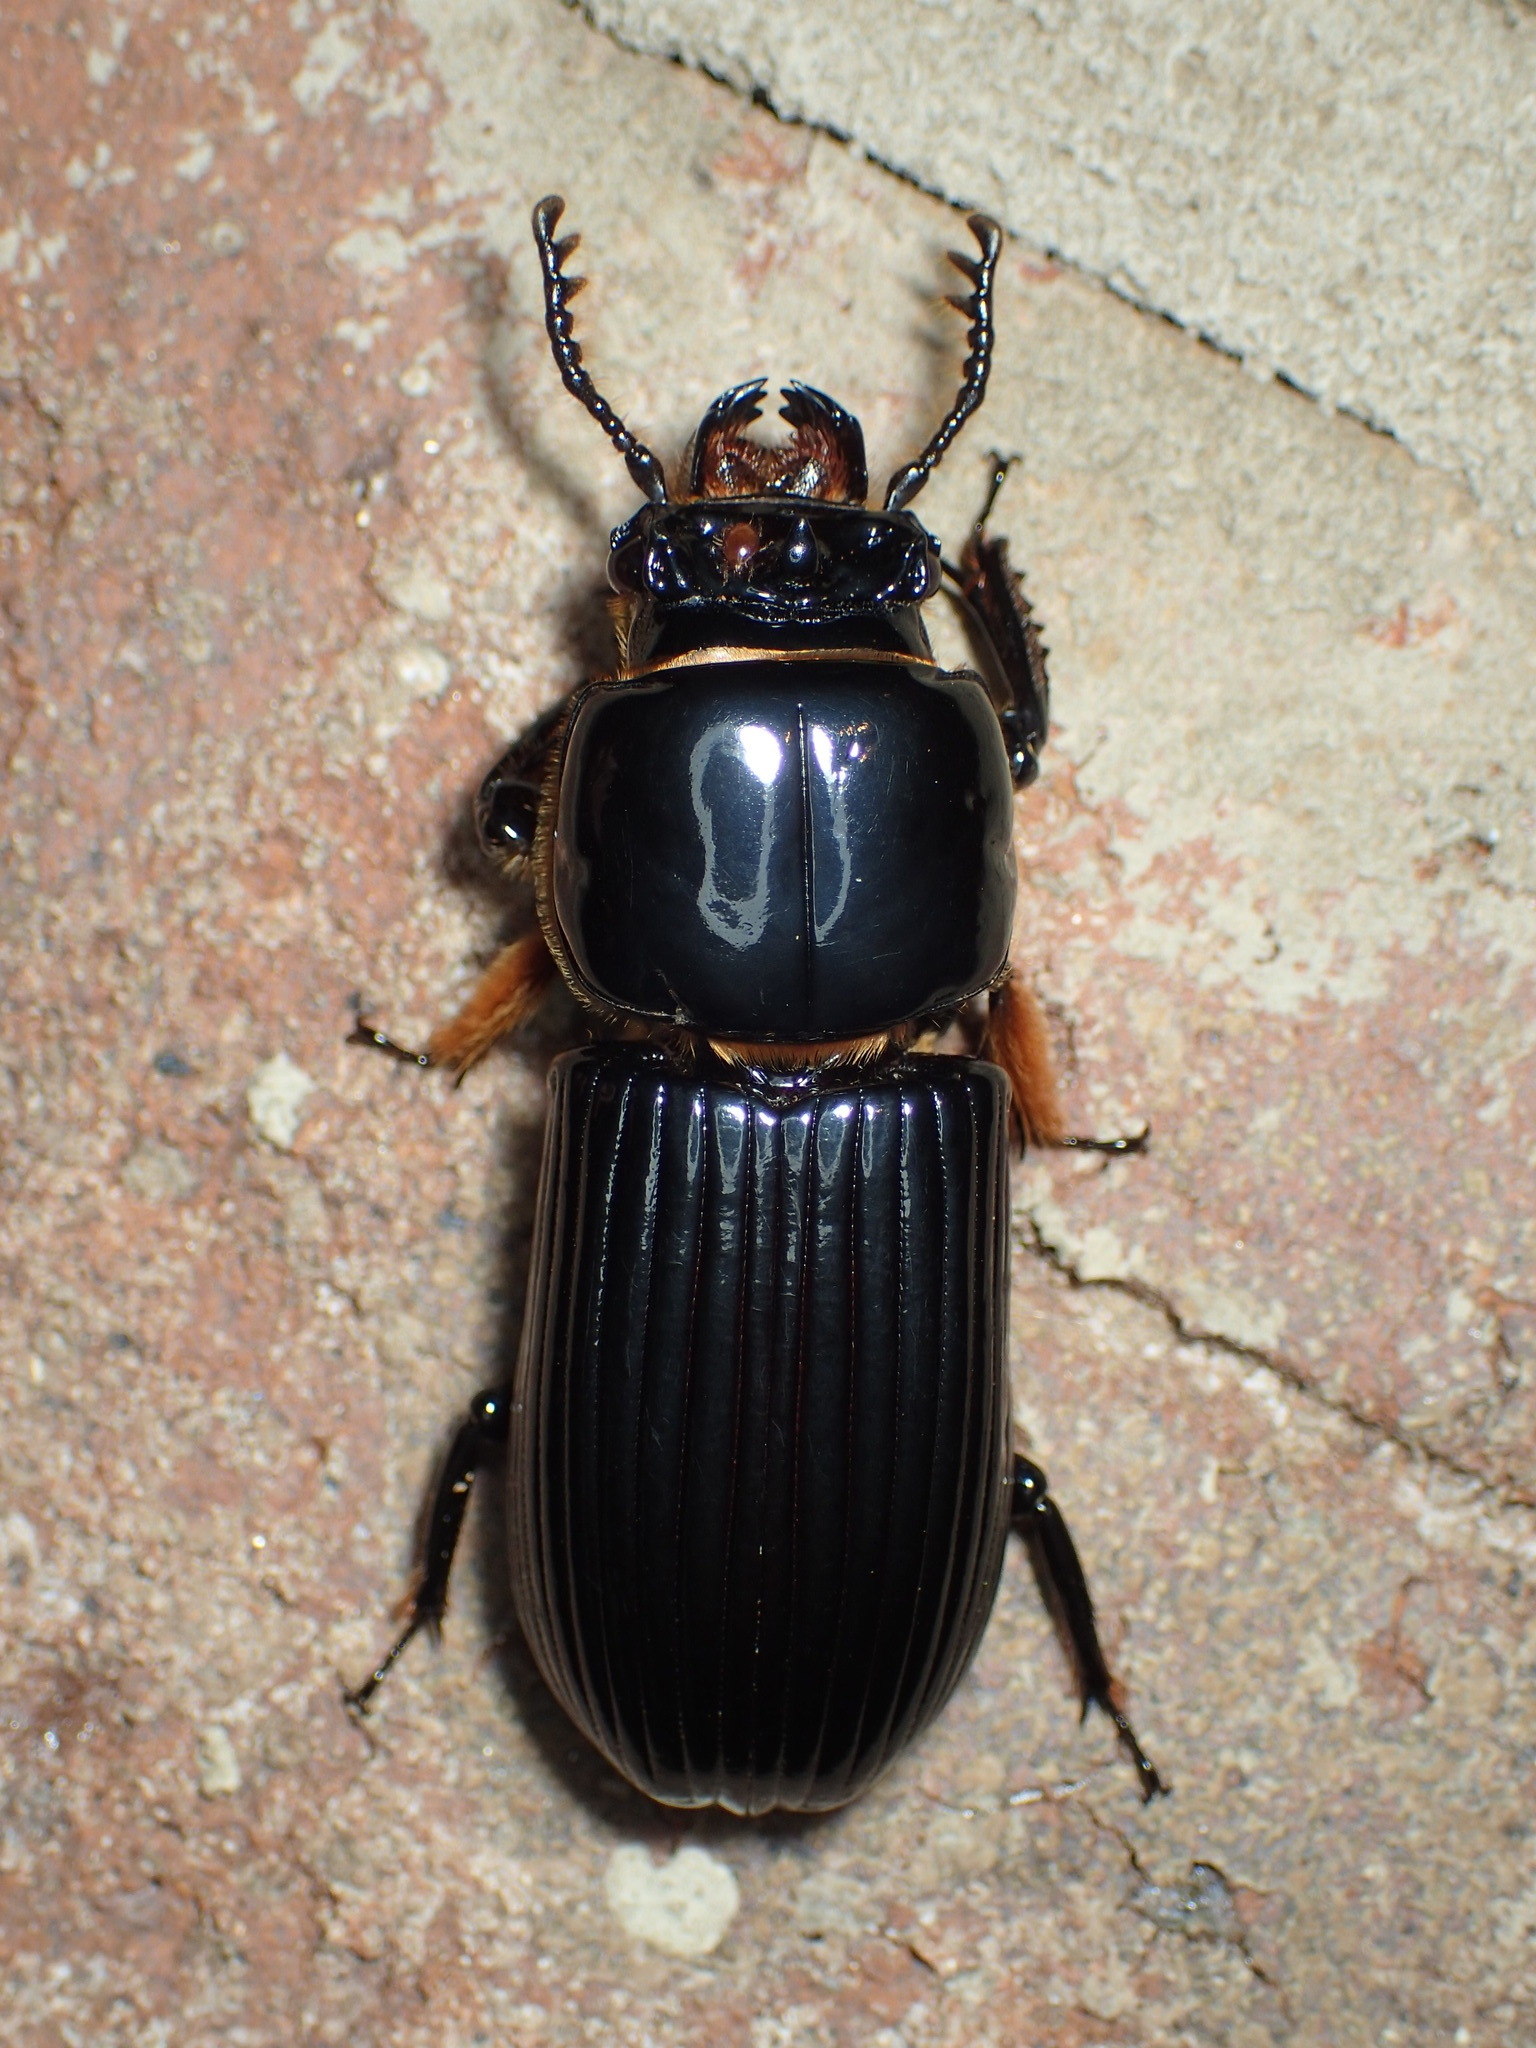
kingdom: Animalia
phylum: Arthropoda
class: Insecta
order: Coleoptera
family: Passalidae
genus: Odontotaenius
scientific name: Odontotaenius disjunctus
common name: Patent leather beetle
